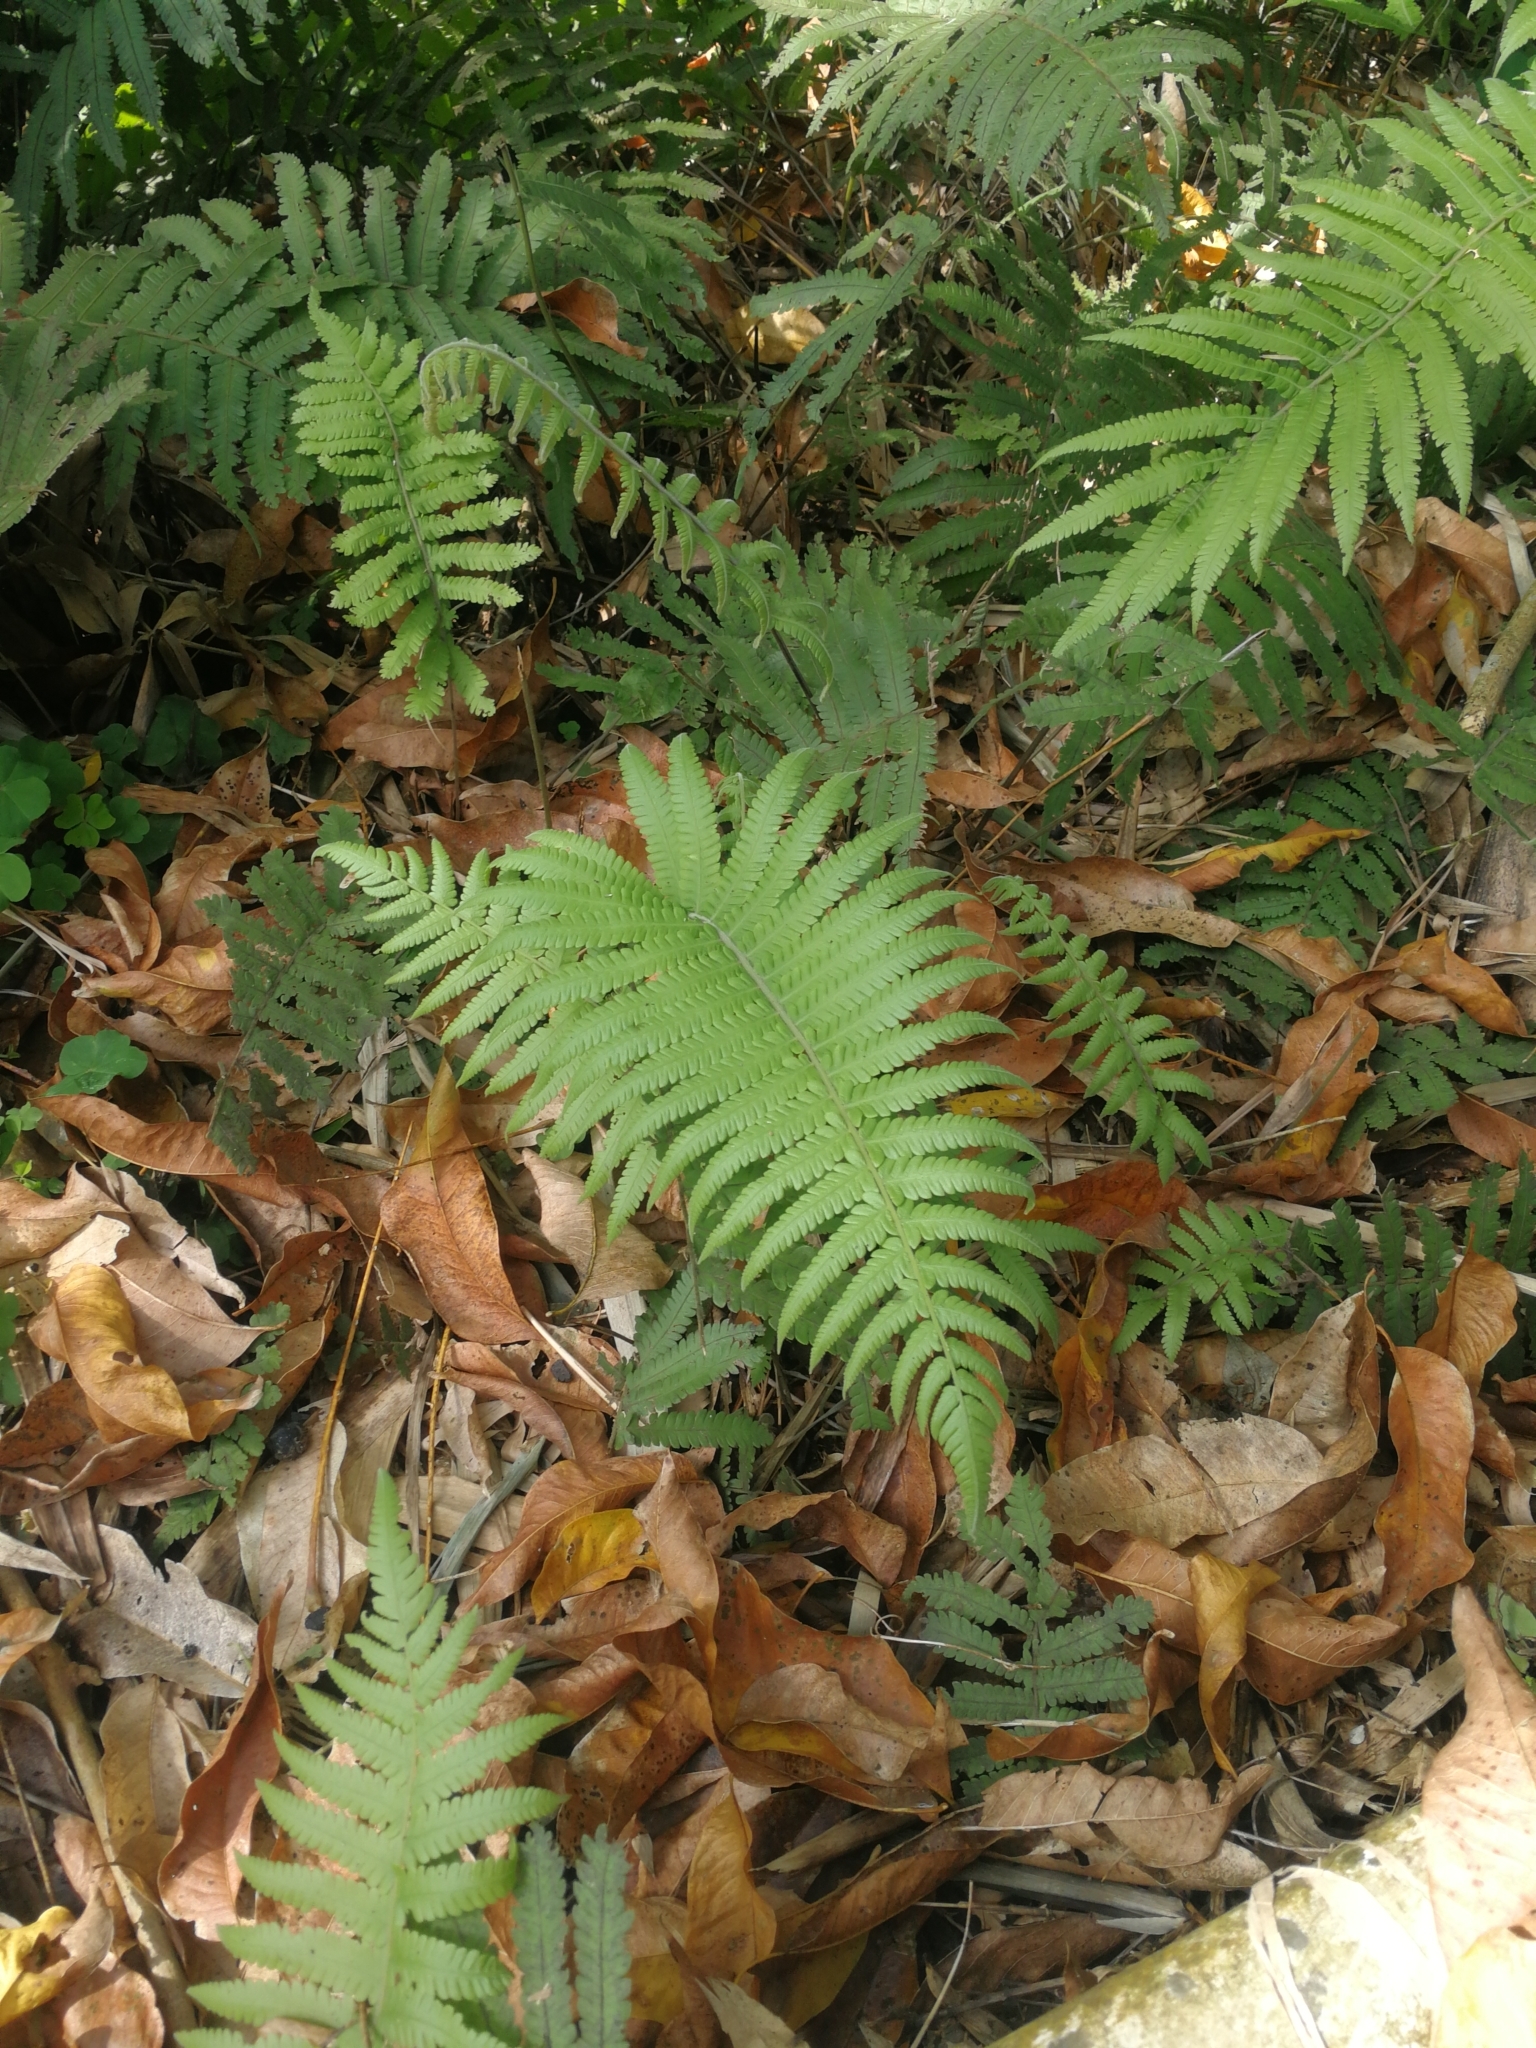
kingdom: Plantae
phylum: Tracheophyta
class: Polypodiopsida
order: Polypodiales
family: Thelypteridaceae
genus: Christella
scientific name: Christella parasitica
